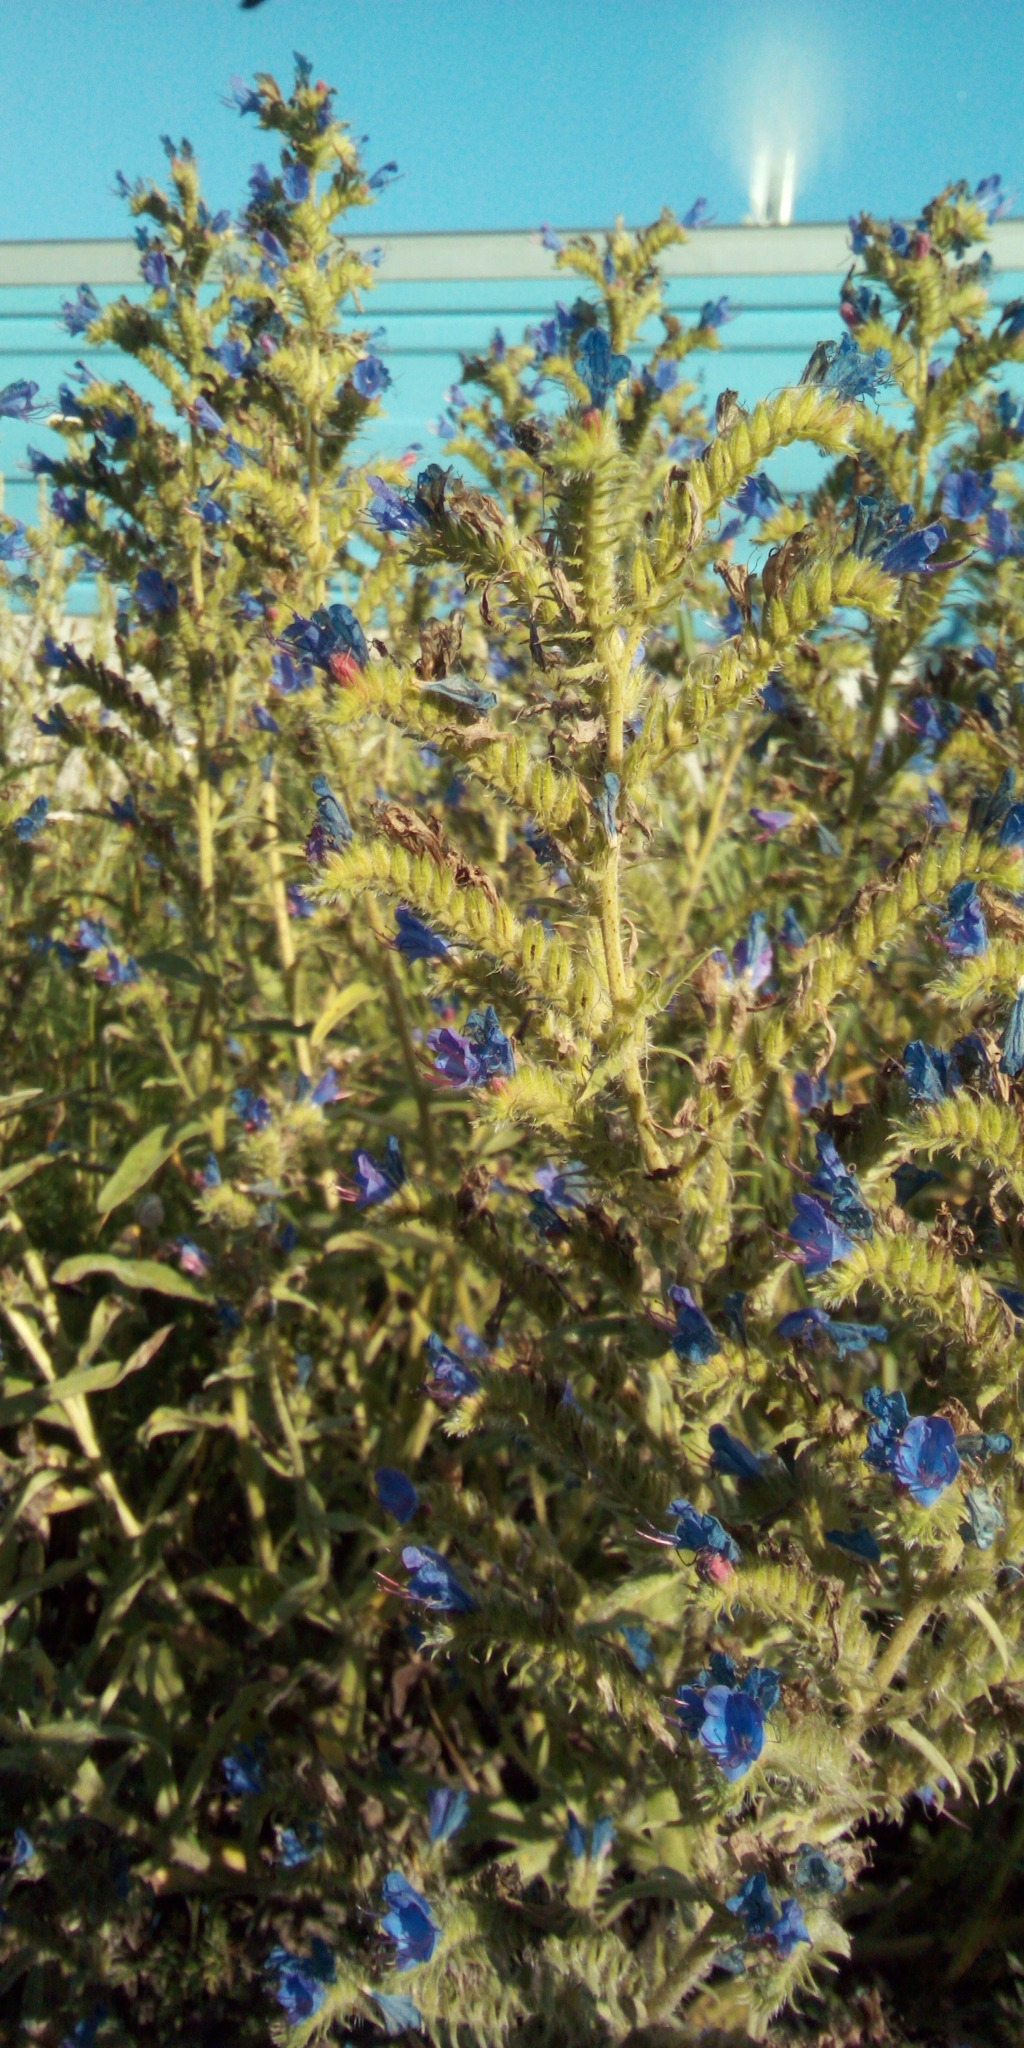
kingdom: Plantae
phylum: Tracheophyta
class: Magnoliopsida
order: Boraginales
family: Boraginaceae
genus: Echium
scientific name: Echium vulgare
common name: Common viper's bugloss
